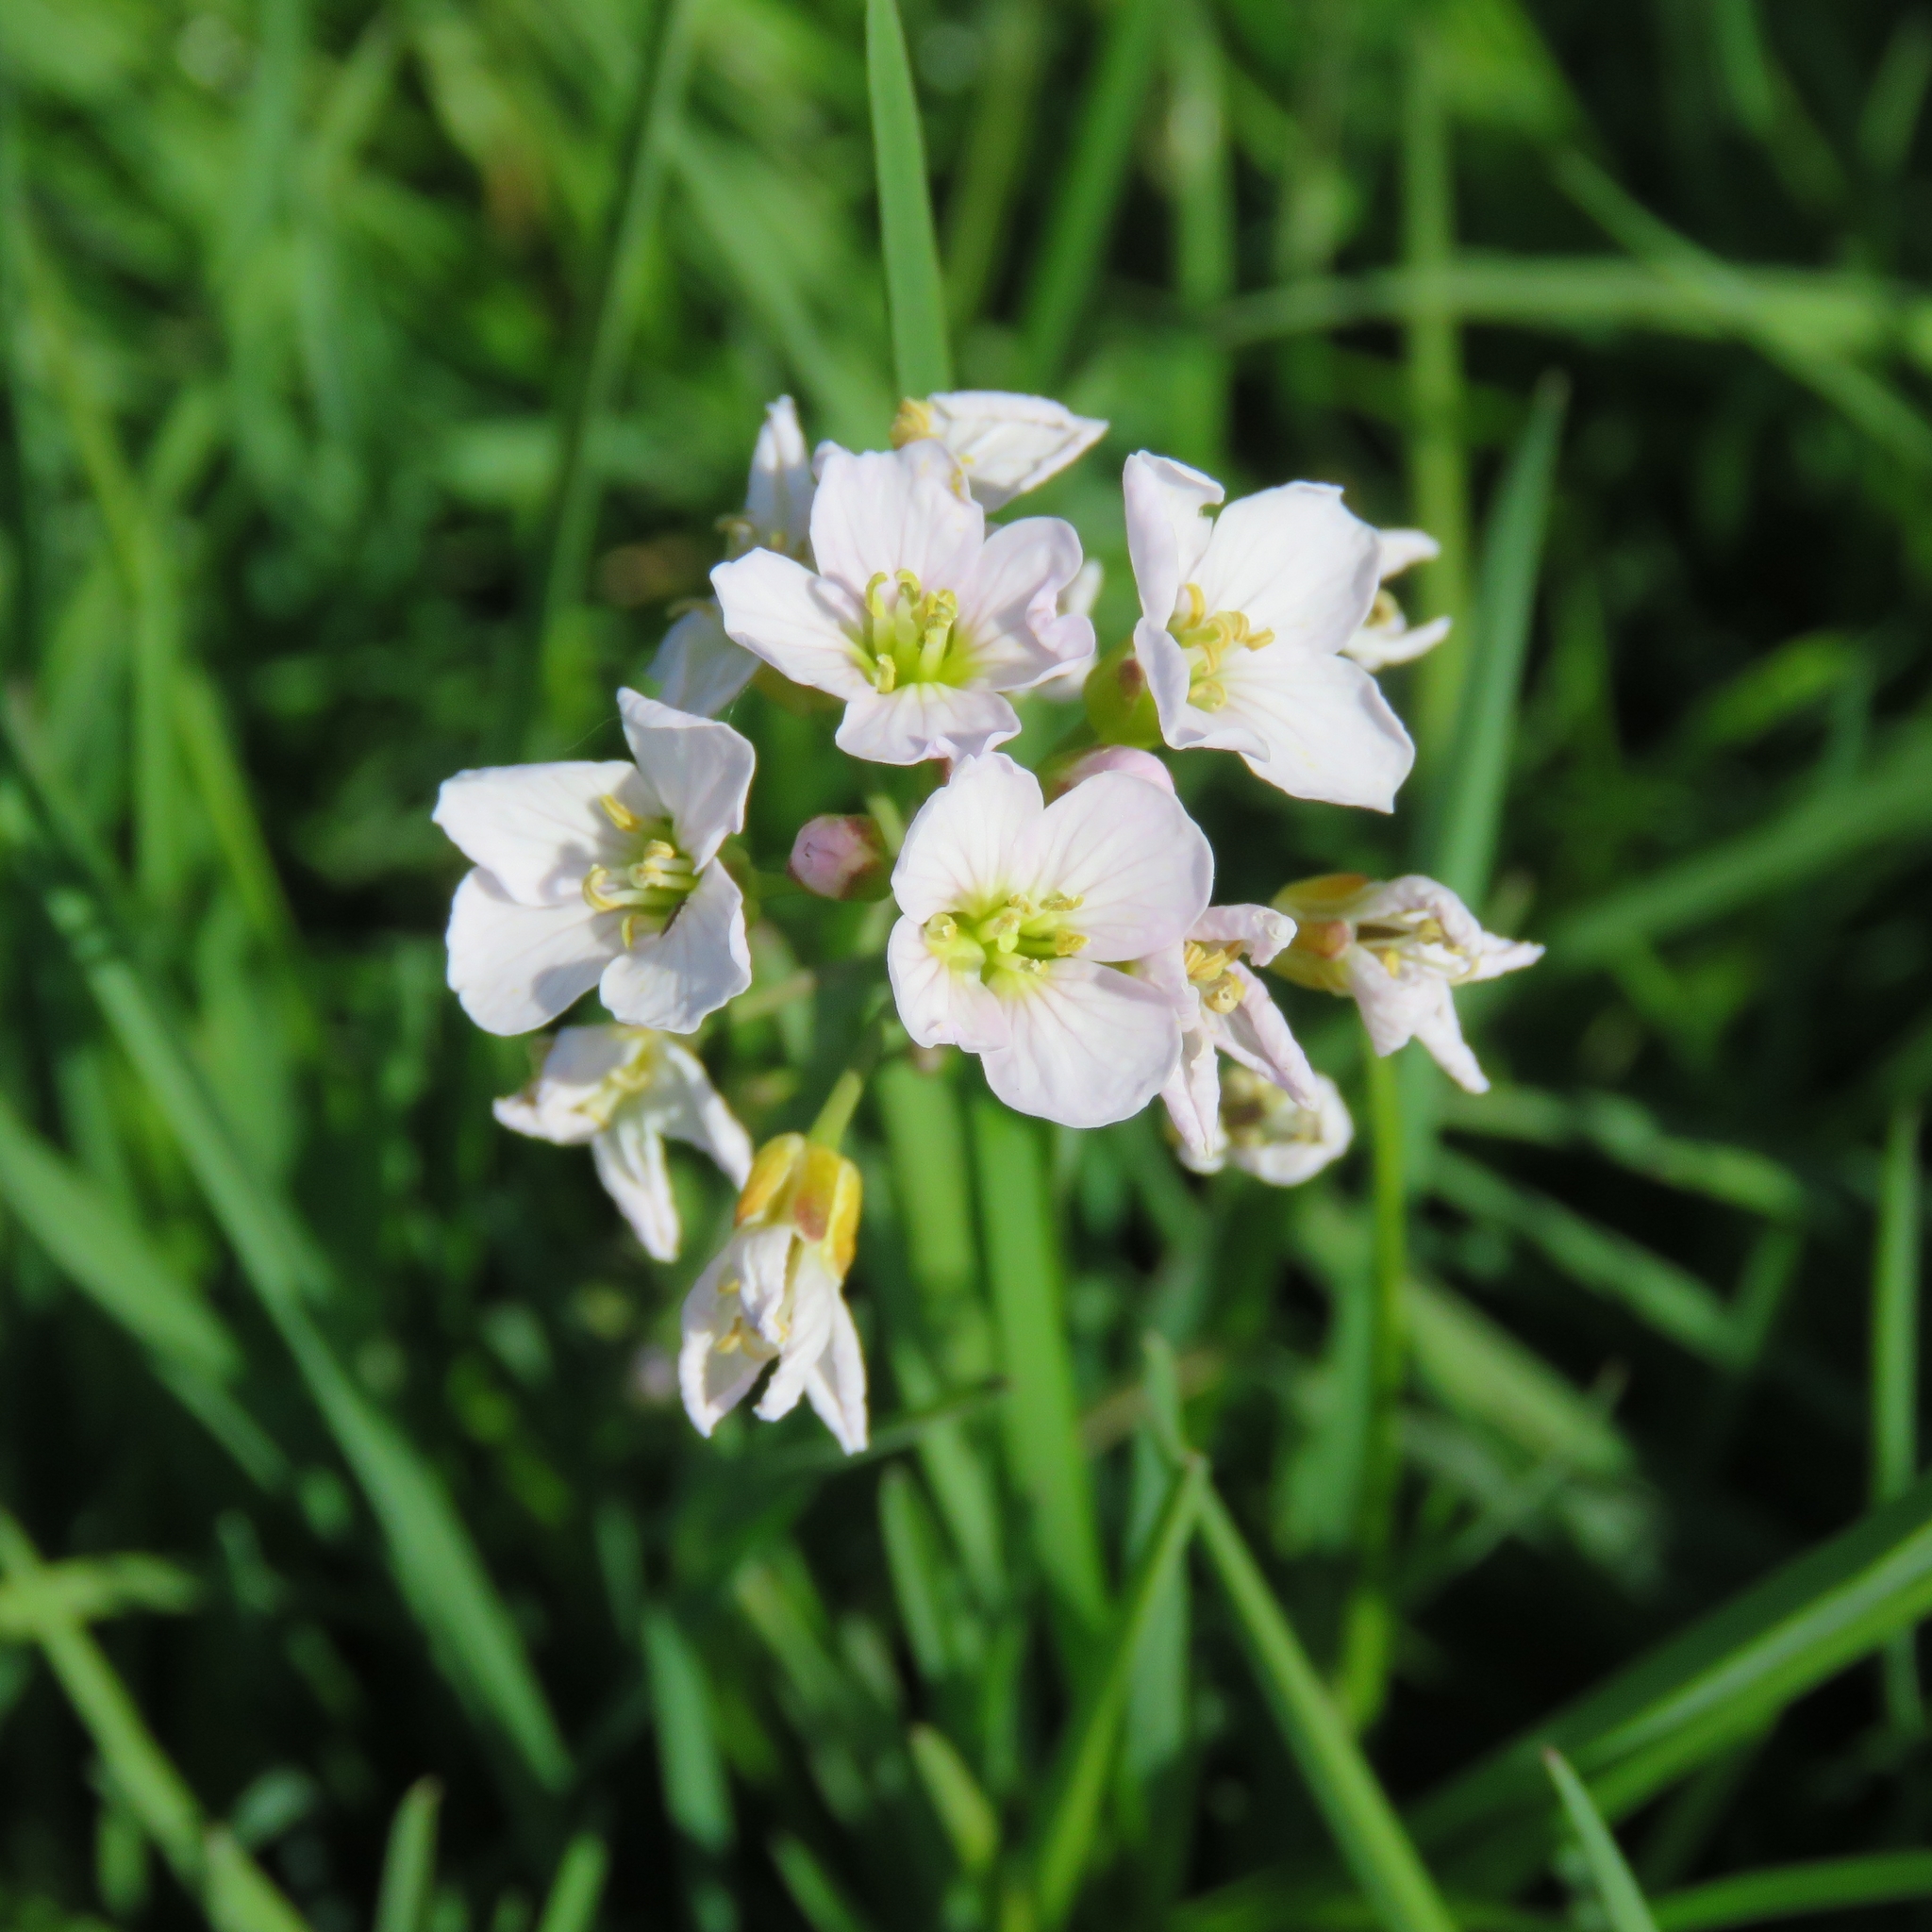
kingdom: Plantae
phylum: Tracheophyta
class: Magnoliopsida
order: Brassicales
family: Brassicaceae
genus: Cardamine
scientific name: Cardamine pratensis
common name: Cuckoo flower
